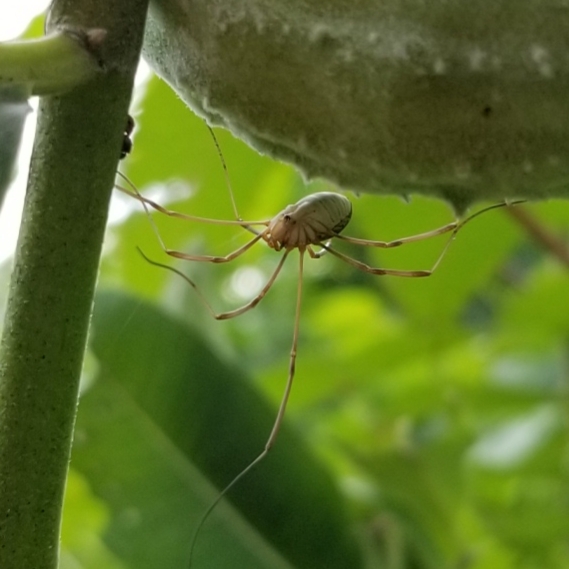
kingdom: Animalia
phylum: Arthropoda
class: Arachnida
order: Opiliones
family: Phalangiidae
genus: Phalangium
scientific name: Phalangium opilio
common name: Daddy longleg
